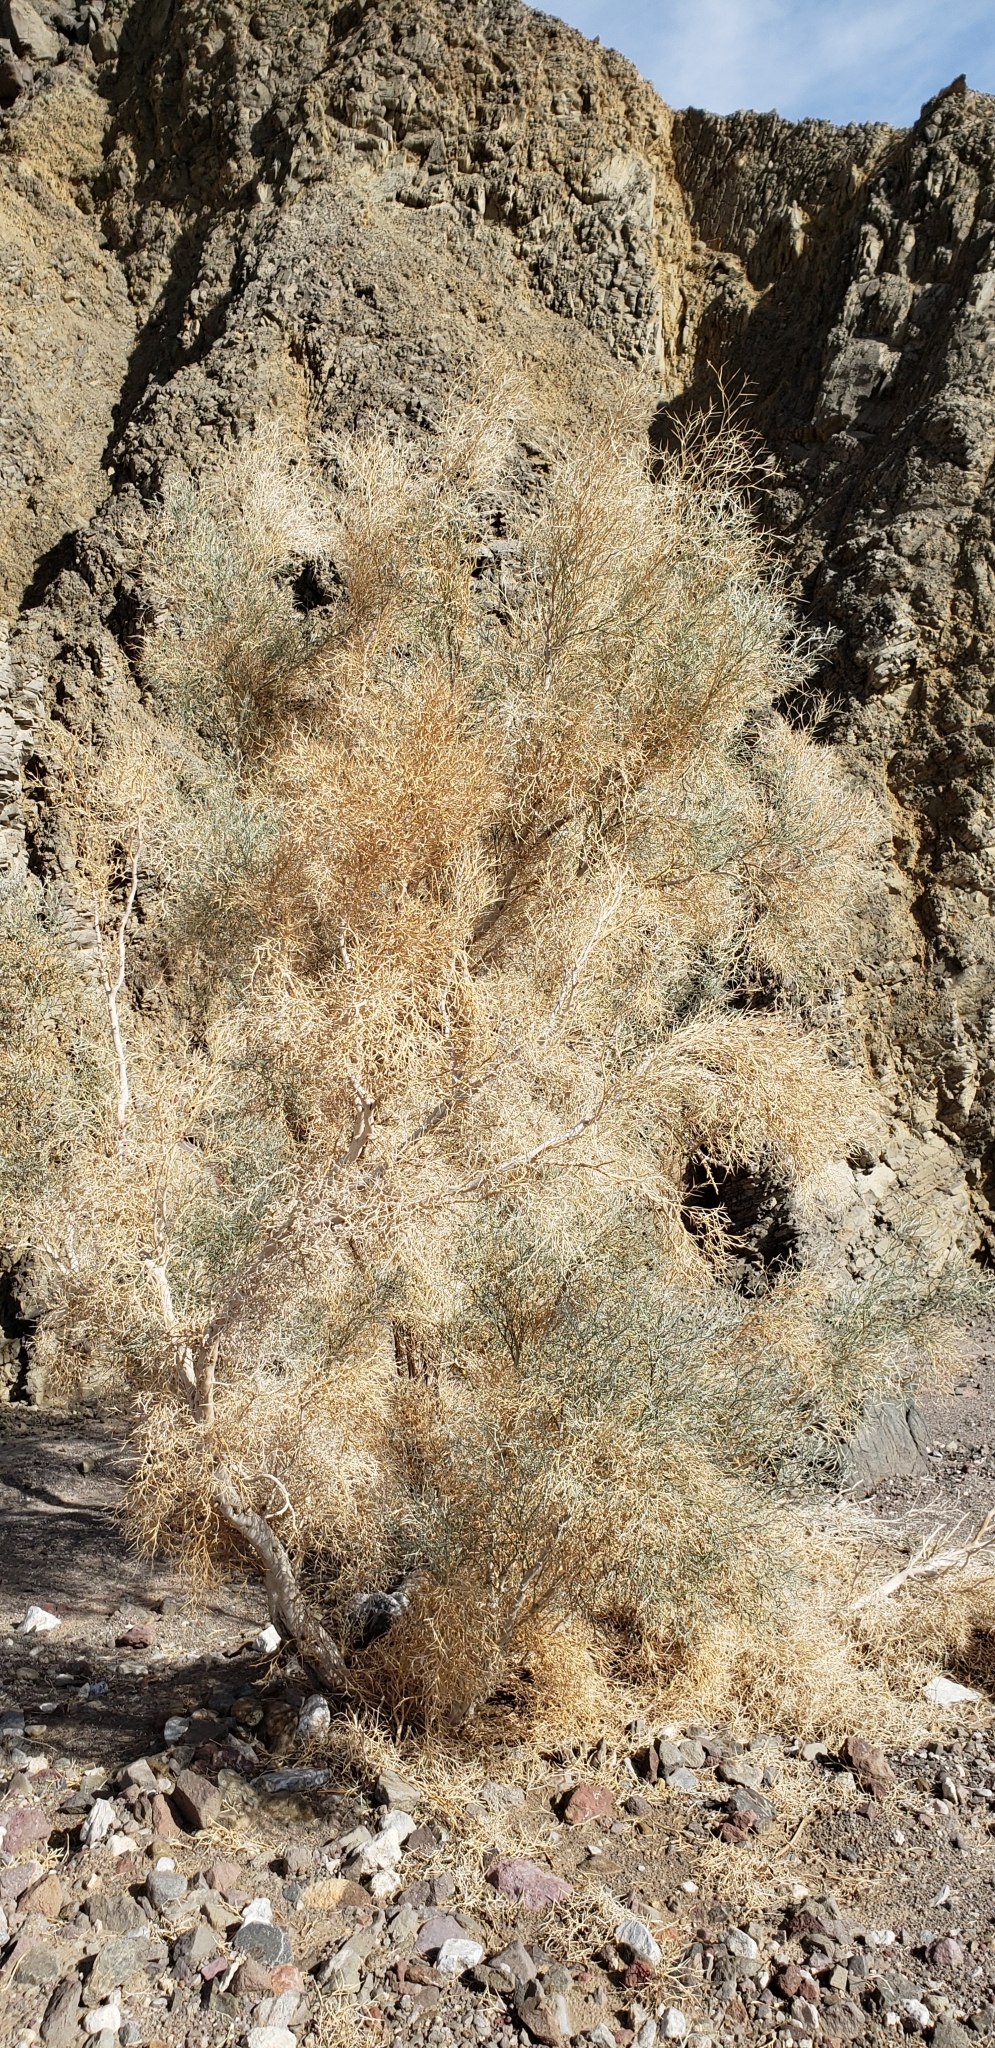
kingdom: Plantae
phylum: Tracheophyta
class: Magnoliopsida
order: Fabales
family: Fabaceae
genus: Psorothamnus
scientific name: Psorothamnus spinosus
